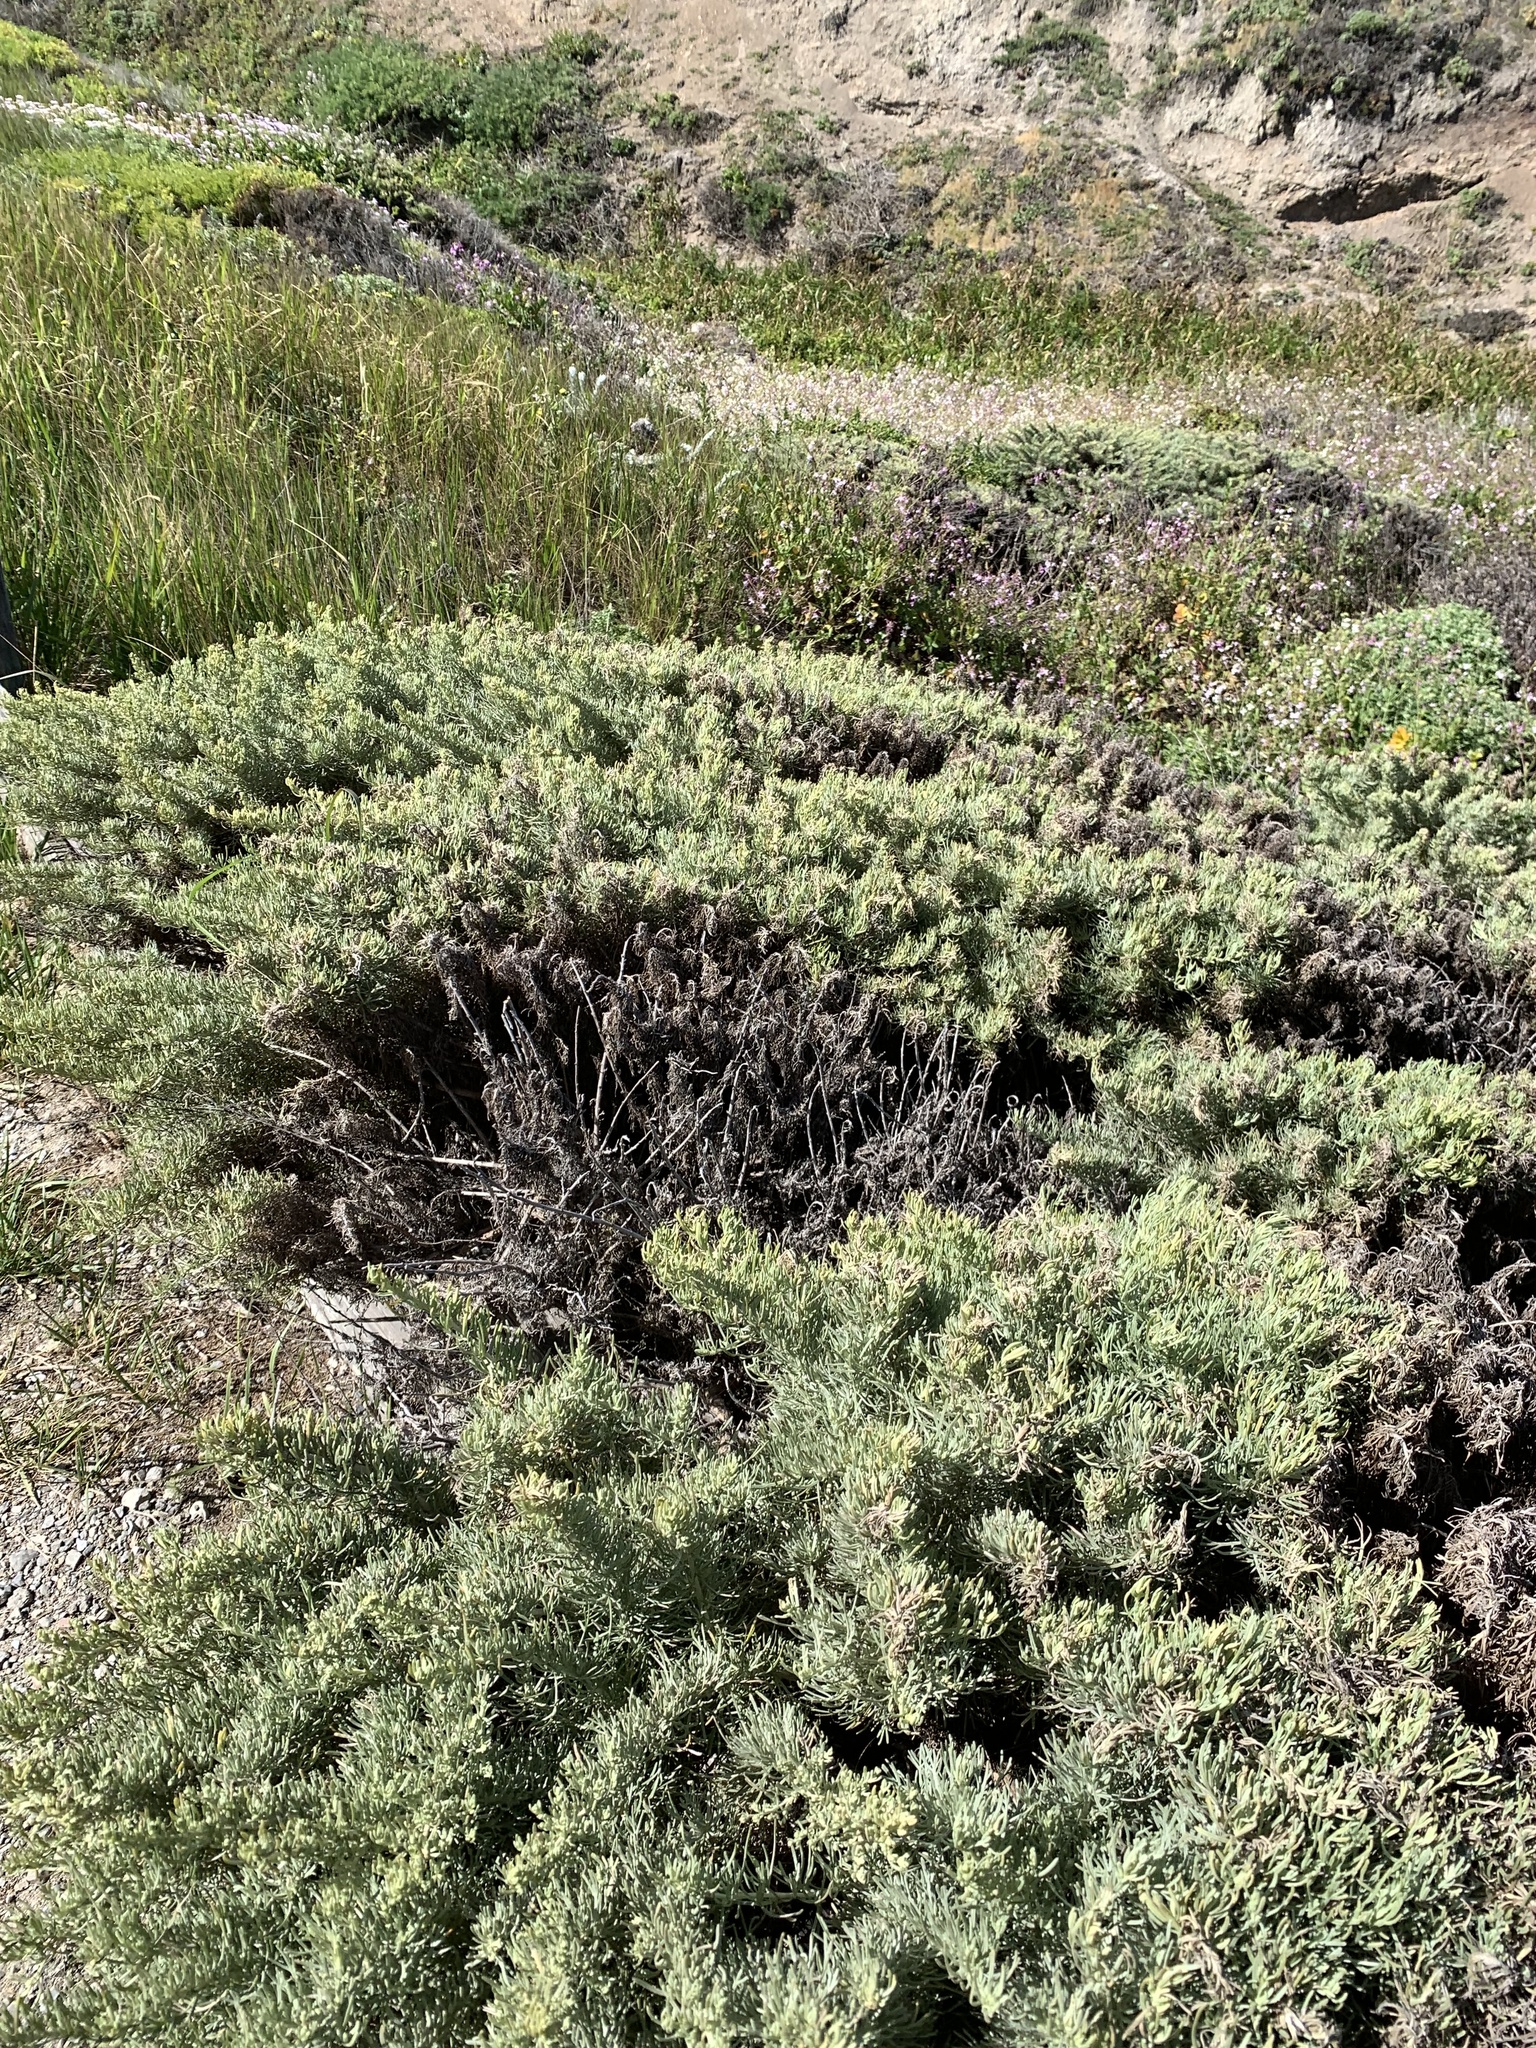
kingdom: Plantae
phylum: Tracheophyta
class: Magnoliopsida
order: Caryophyllales
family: Amaranthaceae
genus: Suaeda
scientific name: Suaeda californica
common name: California sea-blite
